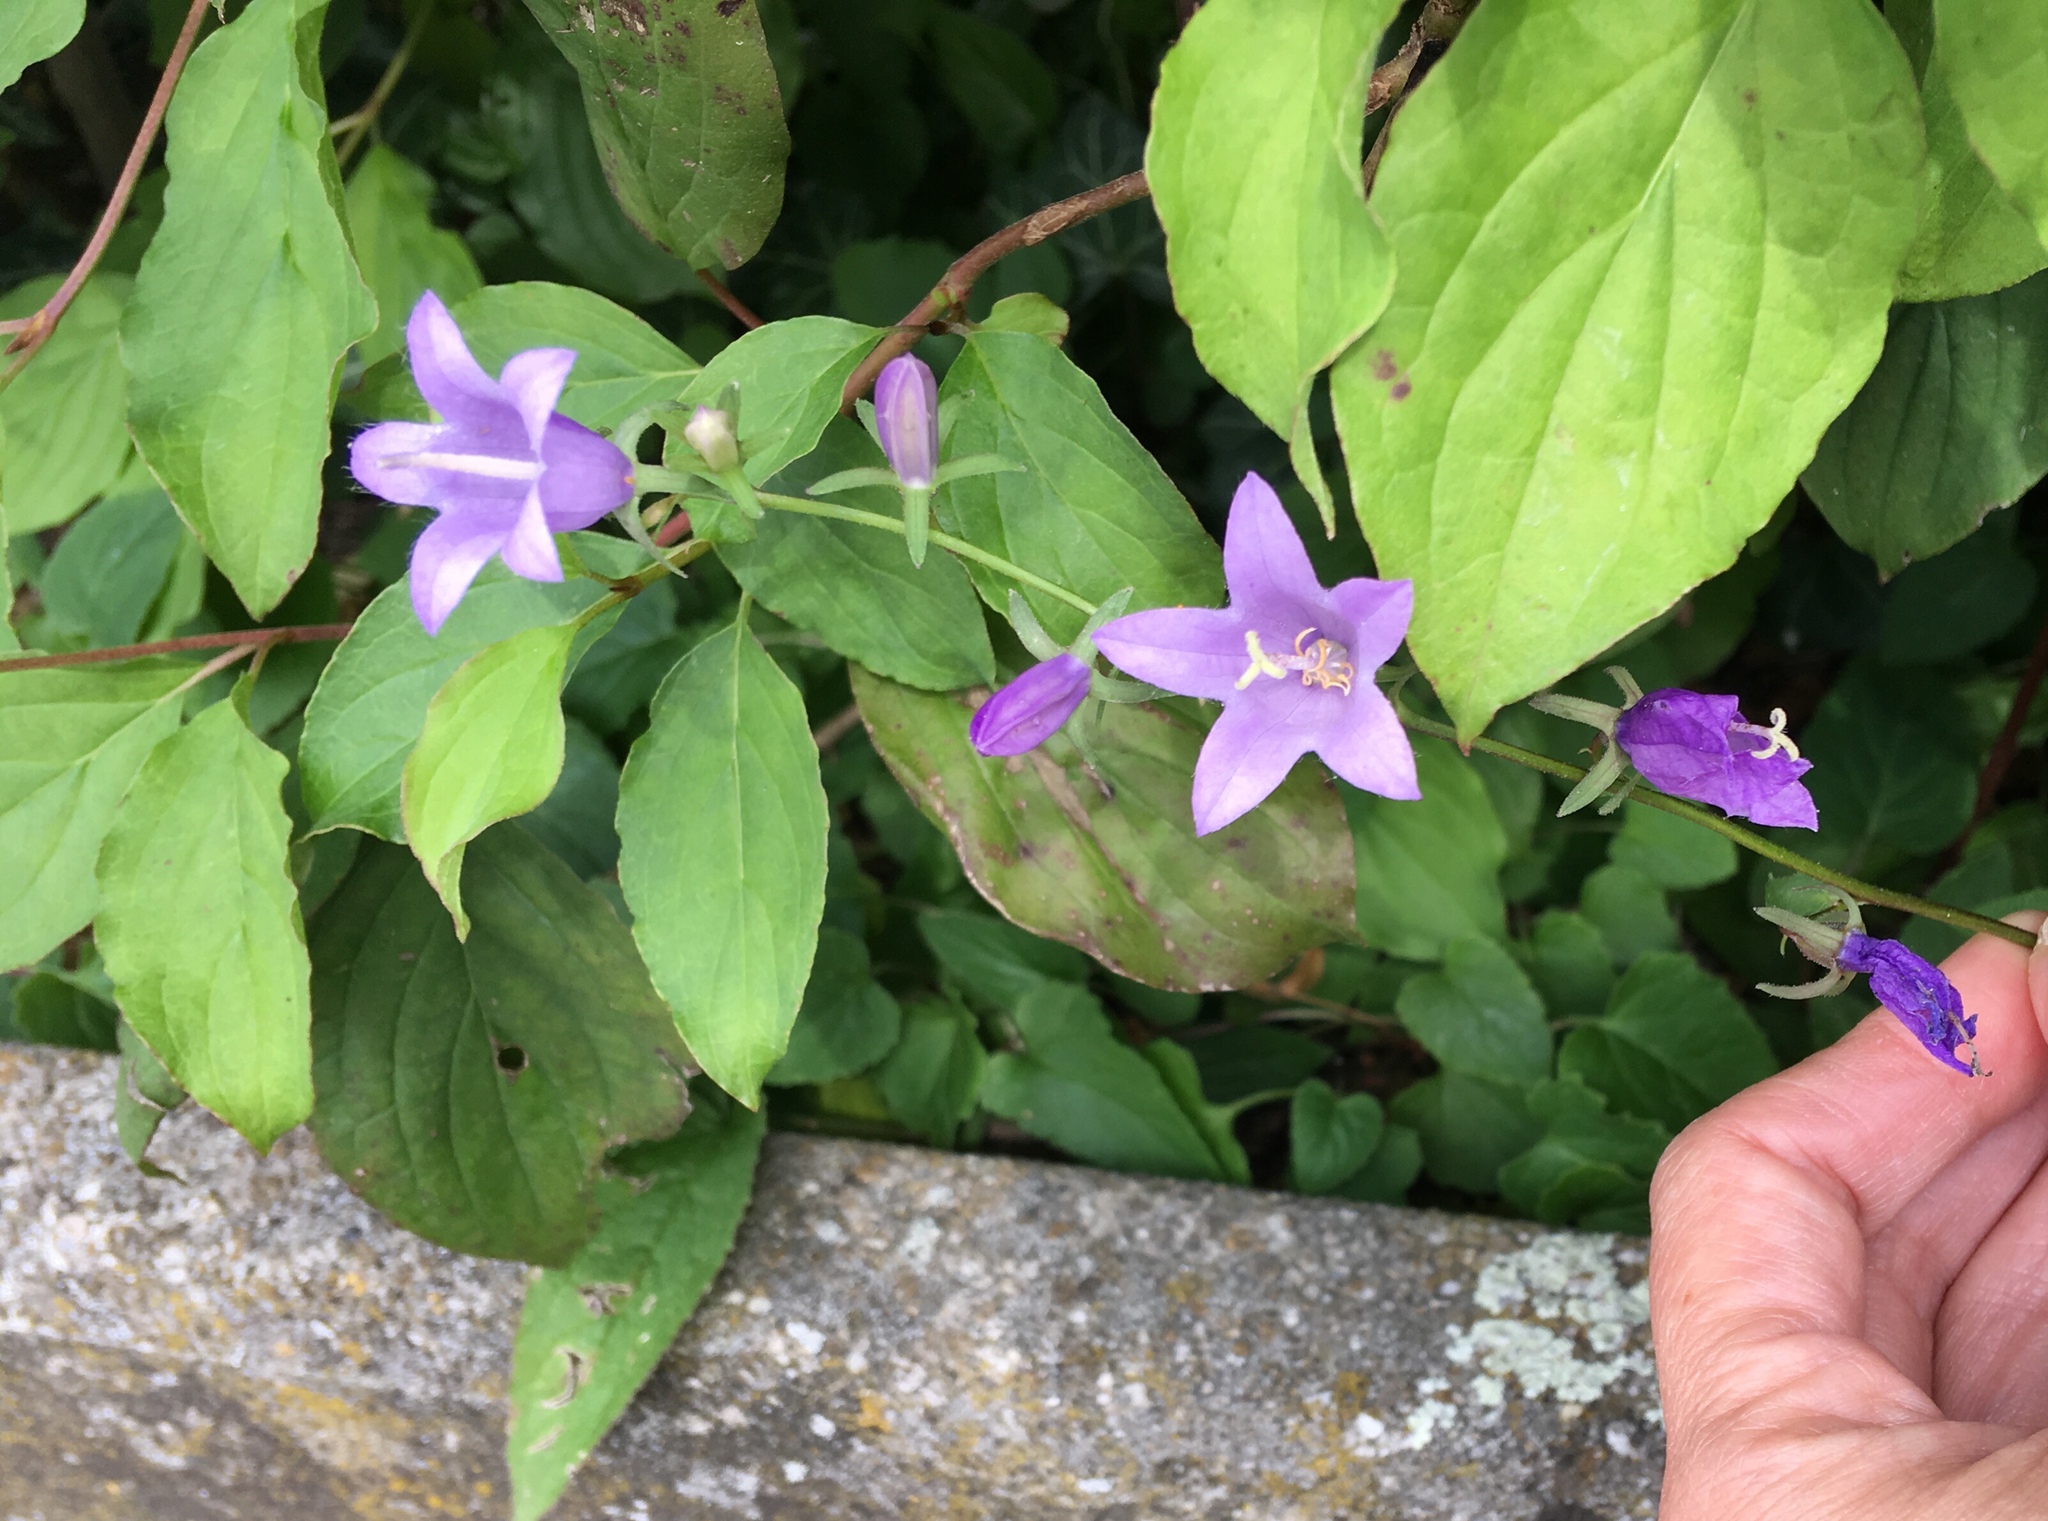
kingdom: Plantae
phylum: Tracheophyta
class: Magnoliopsida
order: Asterales
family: Campanulaceae
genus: Campanula
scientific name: Campanula rapunculoides
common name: Creeping bellflower
